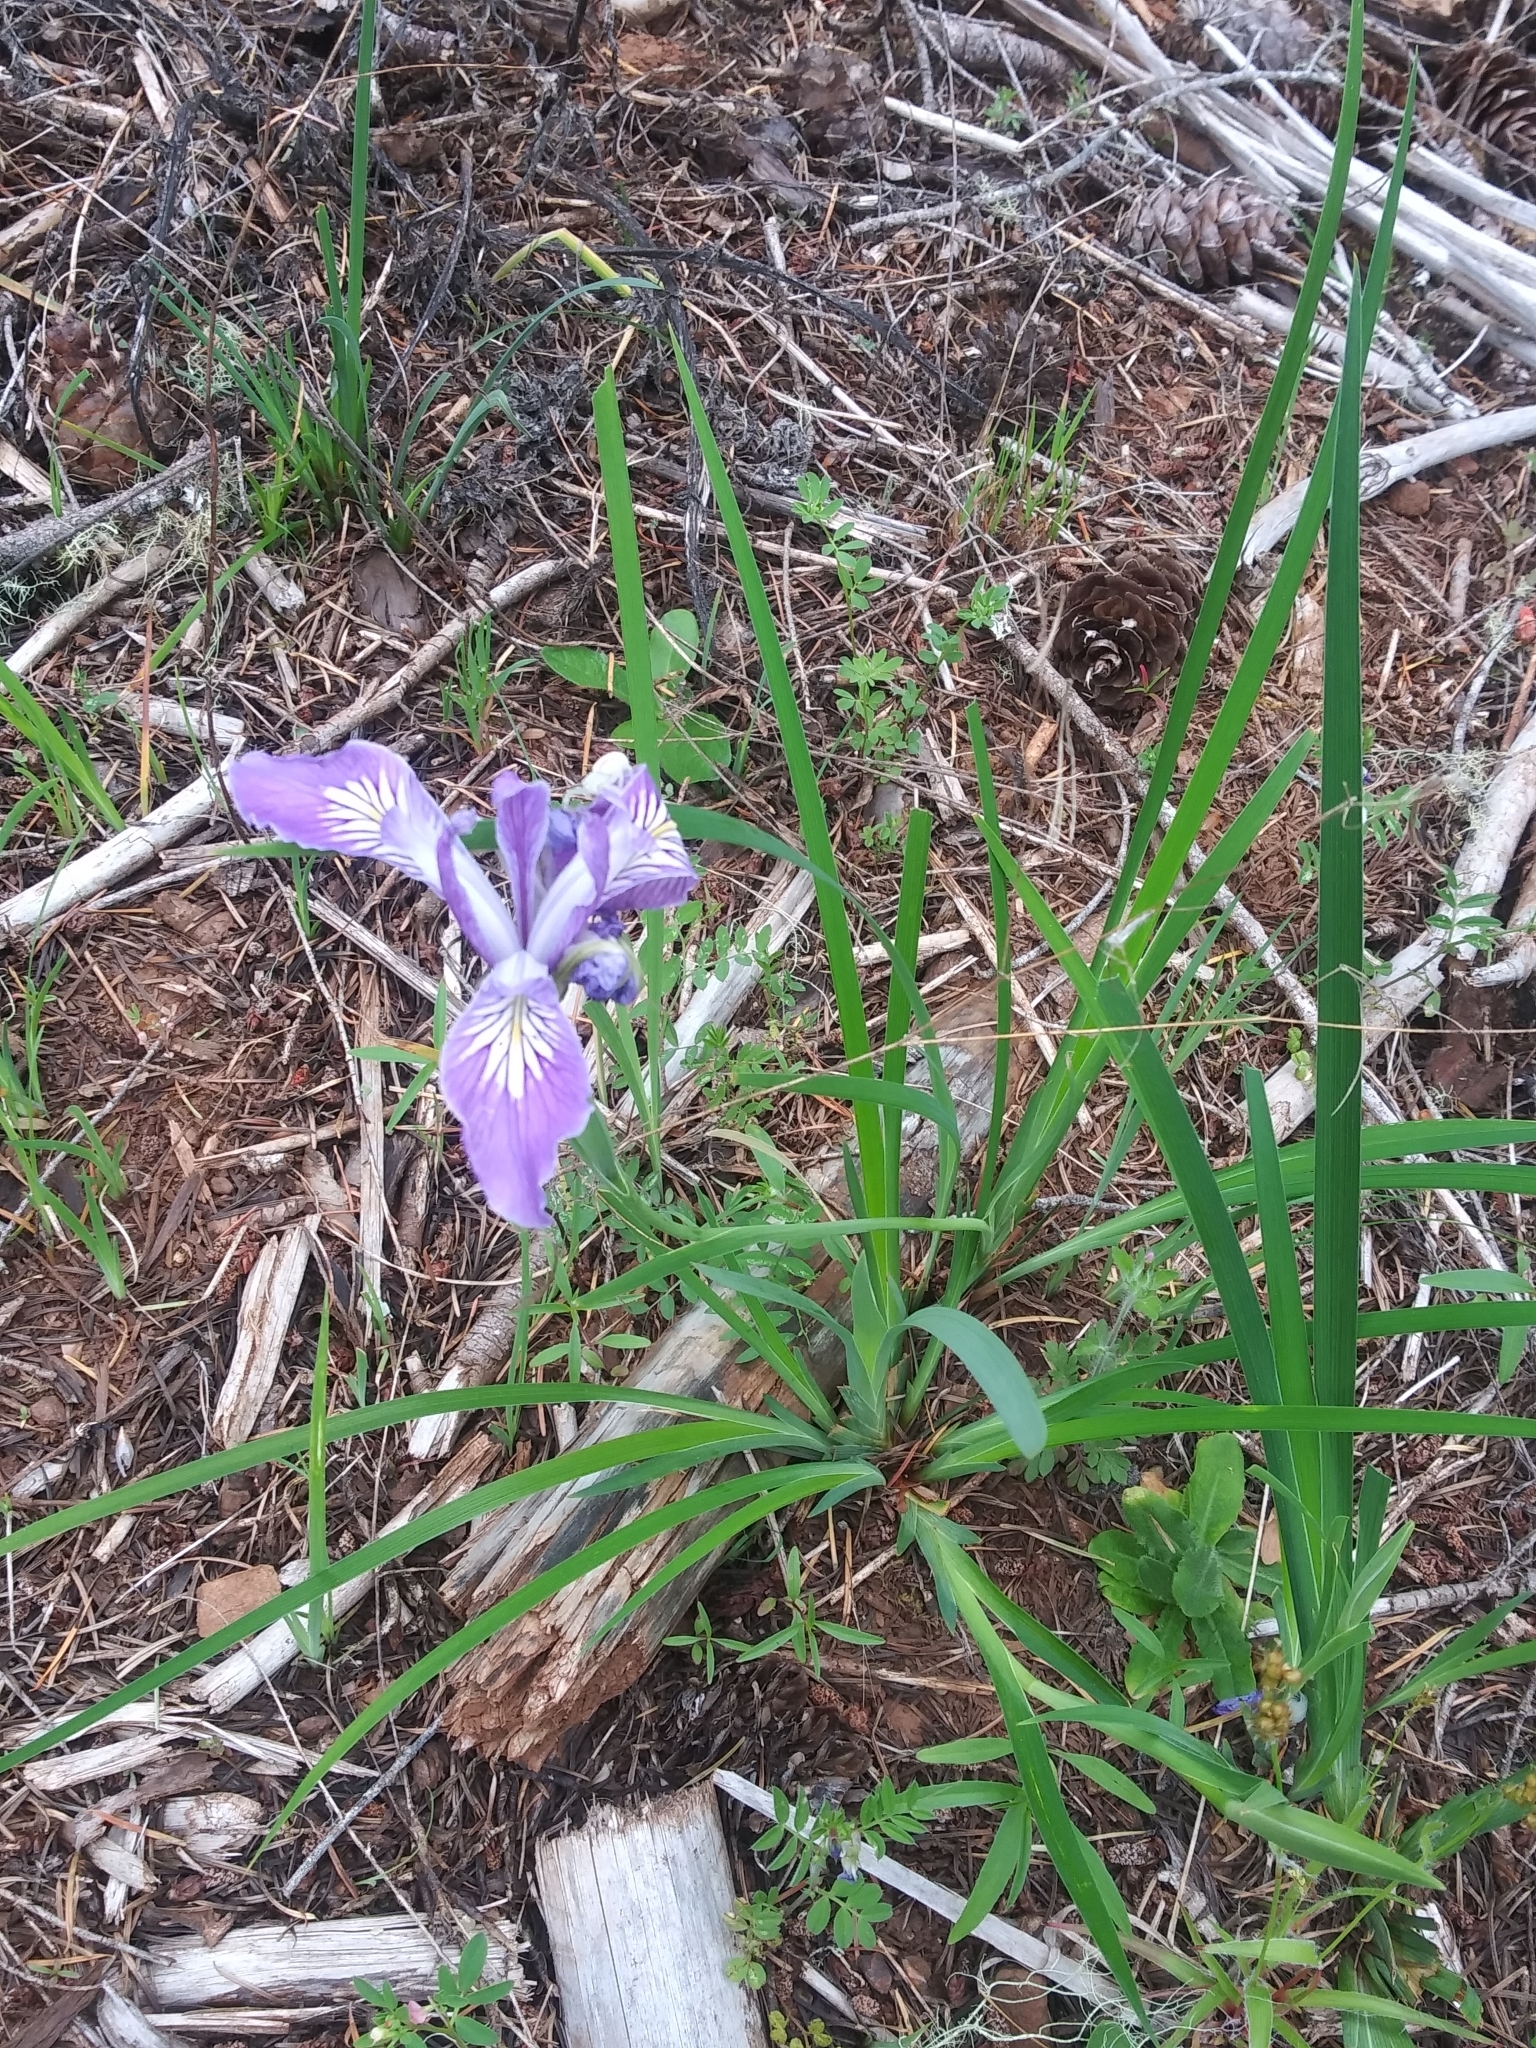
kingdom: Plantae
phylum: Tracheophyta
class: Liliopsida
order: Asparagales
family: Iridaceae
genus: Iris
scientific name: Iris tenax
